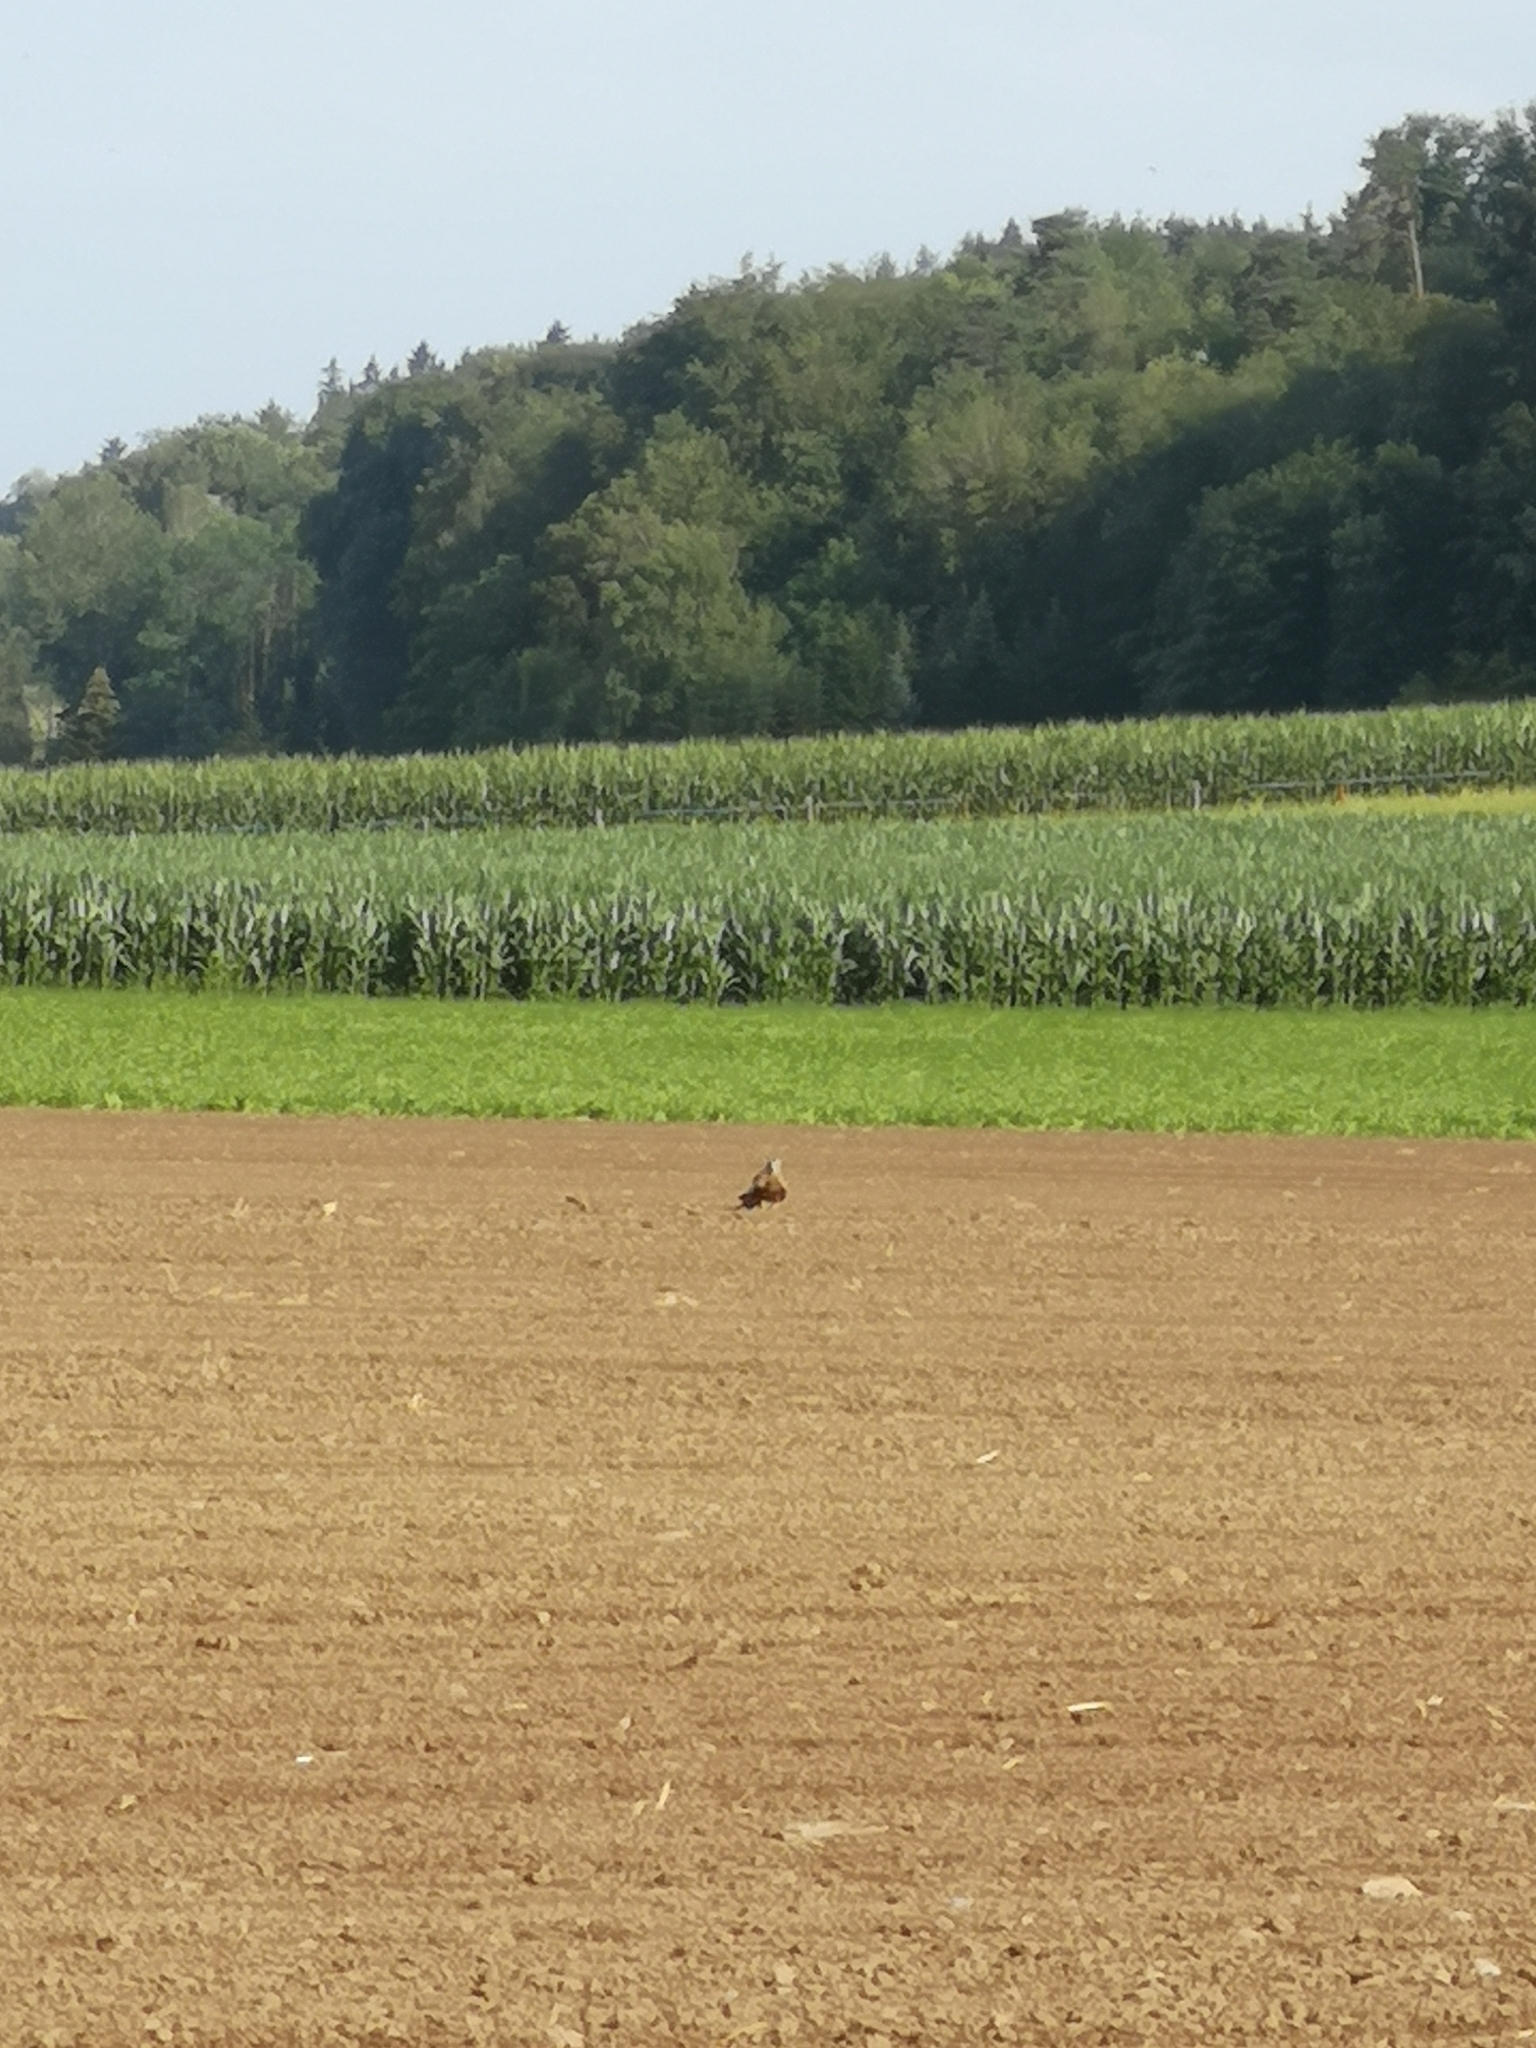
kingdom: Animalia
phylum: Chordata
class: Aves
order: Accipitriformes
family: Accipitridae
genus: Milvus
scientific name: Milvus milvus
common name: Red kite
